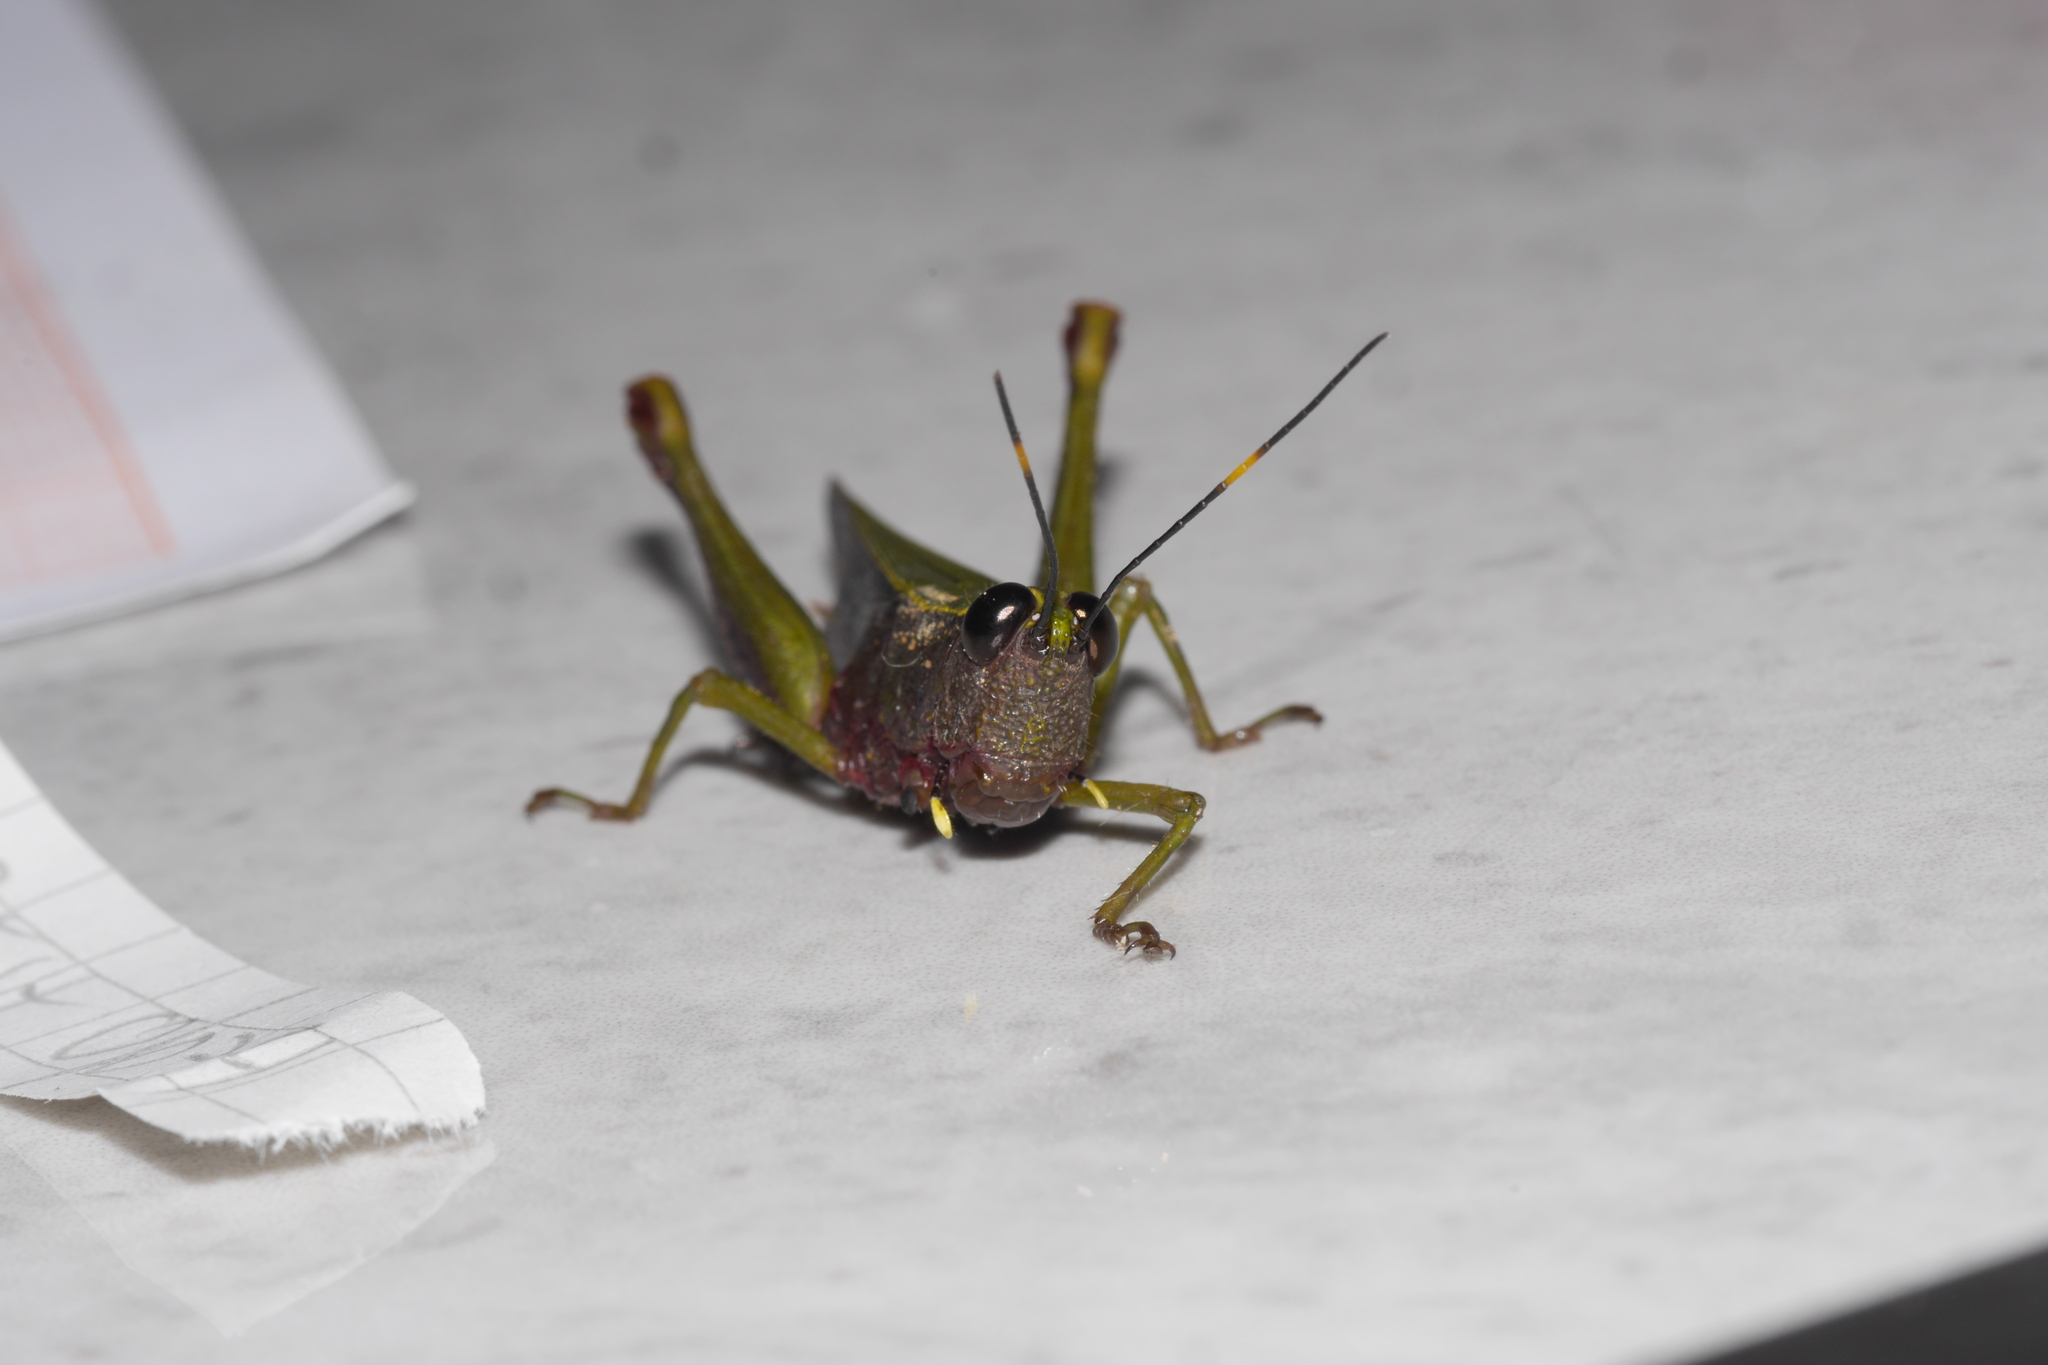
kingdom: Animalia
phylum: Arthropoda
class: Insecta
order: Orthoptera
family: Acrididae
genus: Ortalacris
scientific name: Ortalacris azurescens
